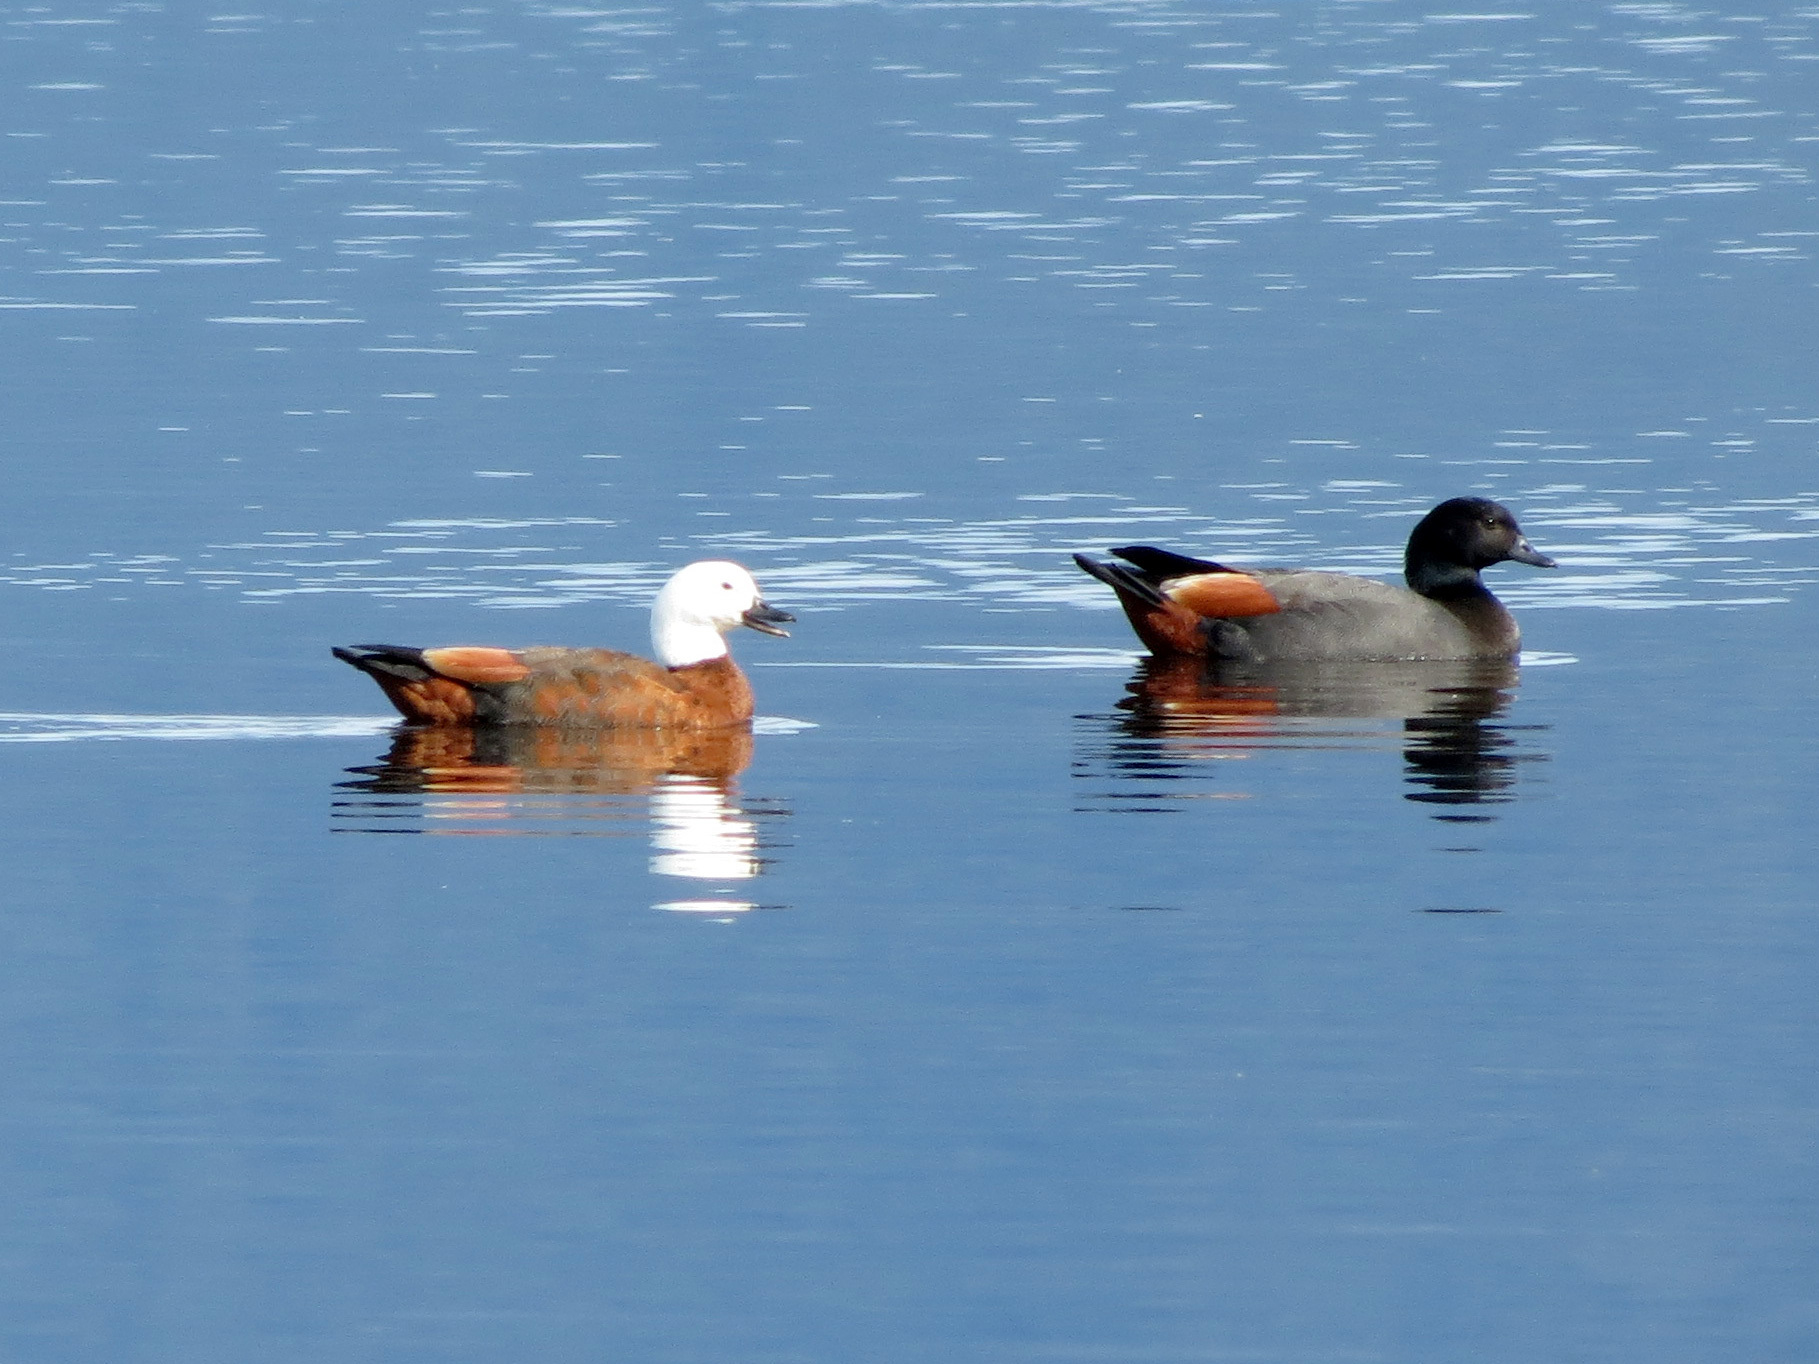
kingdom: Animalia
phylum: Chordata
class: Aves
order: Anseriformes
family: Anatidae
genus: Tadorna
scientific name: Tadorna variegata
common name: Paradise shelduck
